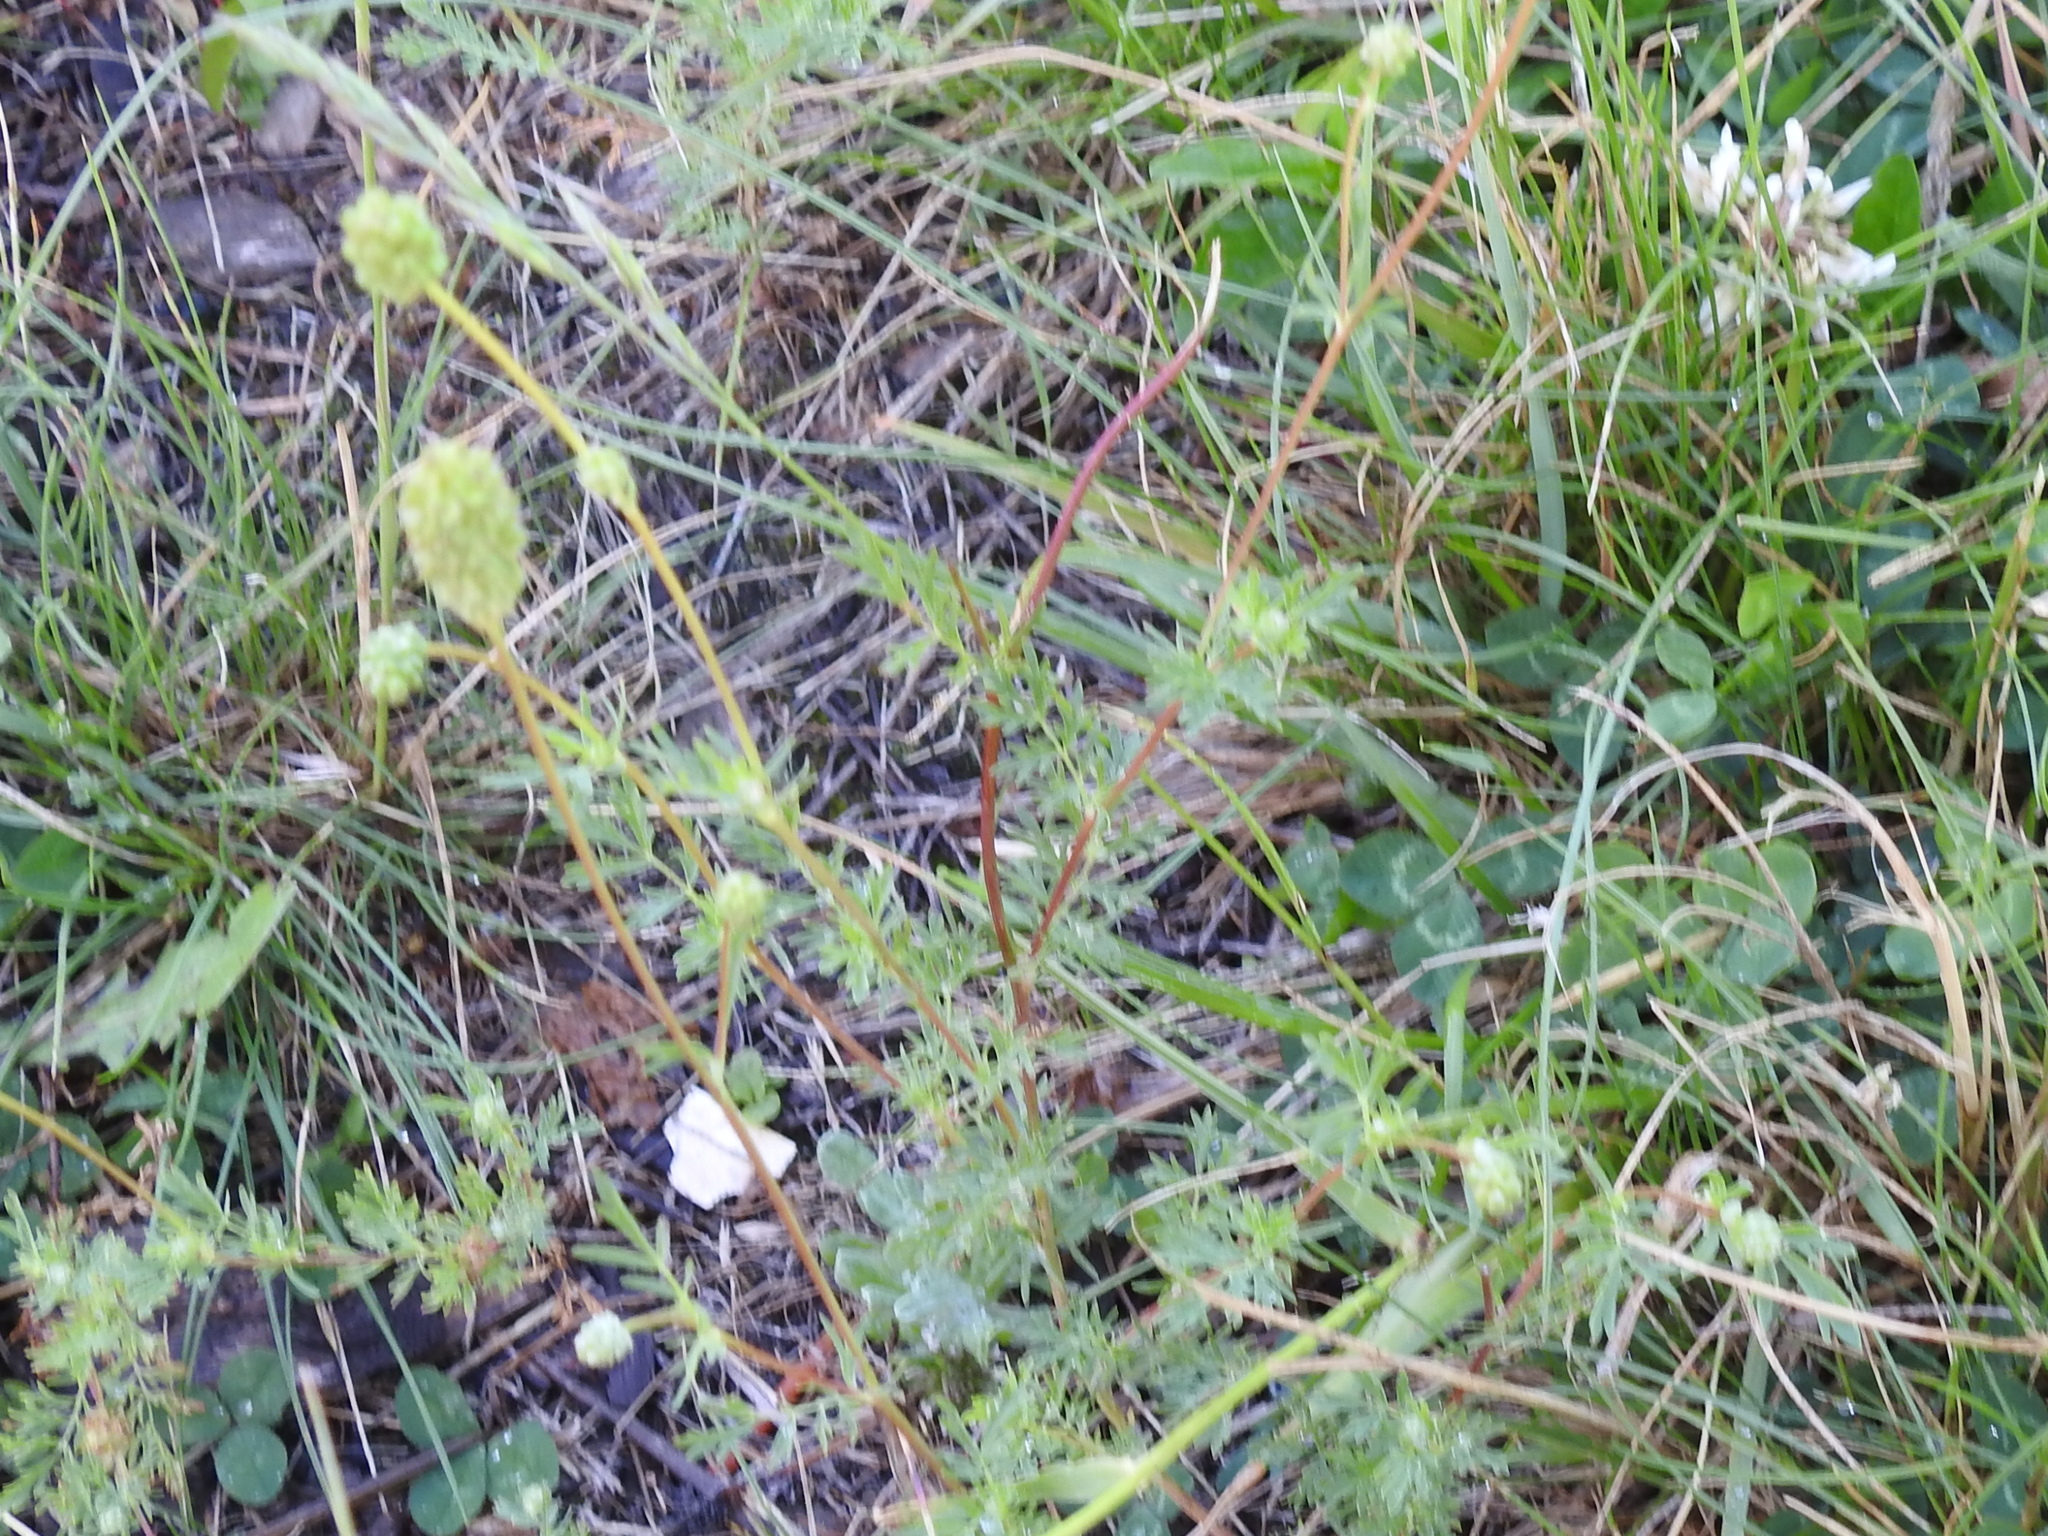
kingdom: Plantae
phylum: Tracheophyta
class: Magnoliopsida
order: Rosales
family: Rosaceae
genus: Poteridium
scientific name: Poteridium occidentale
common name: Western burnet
